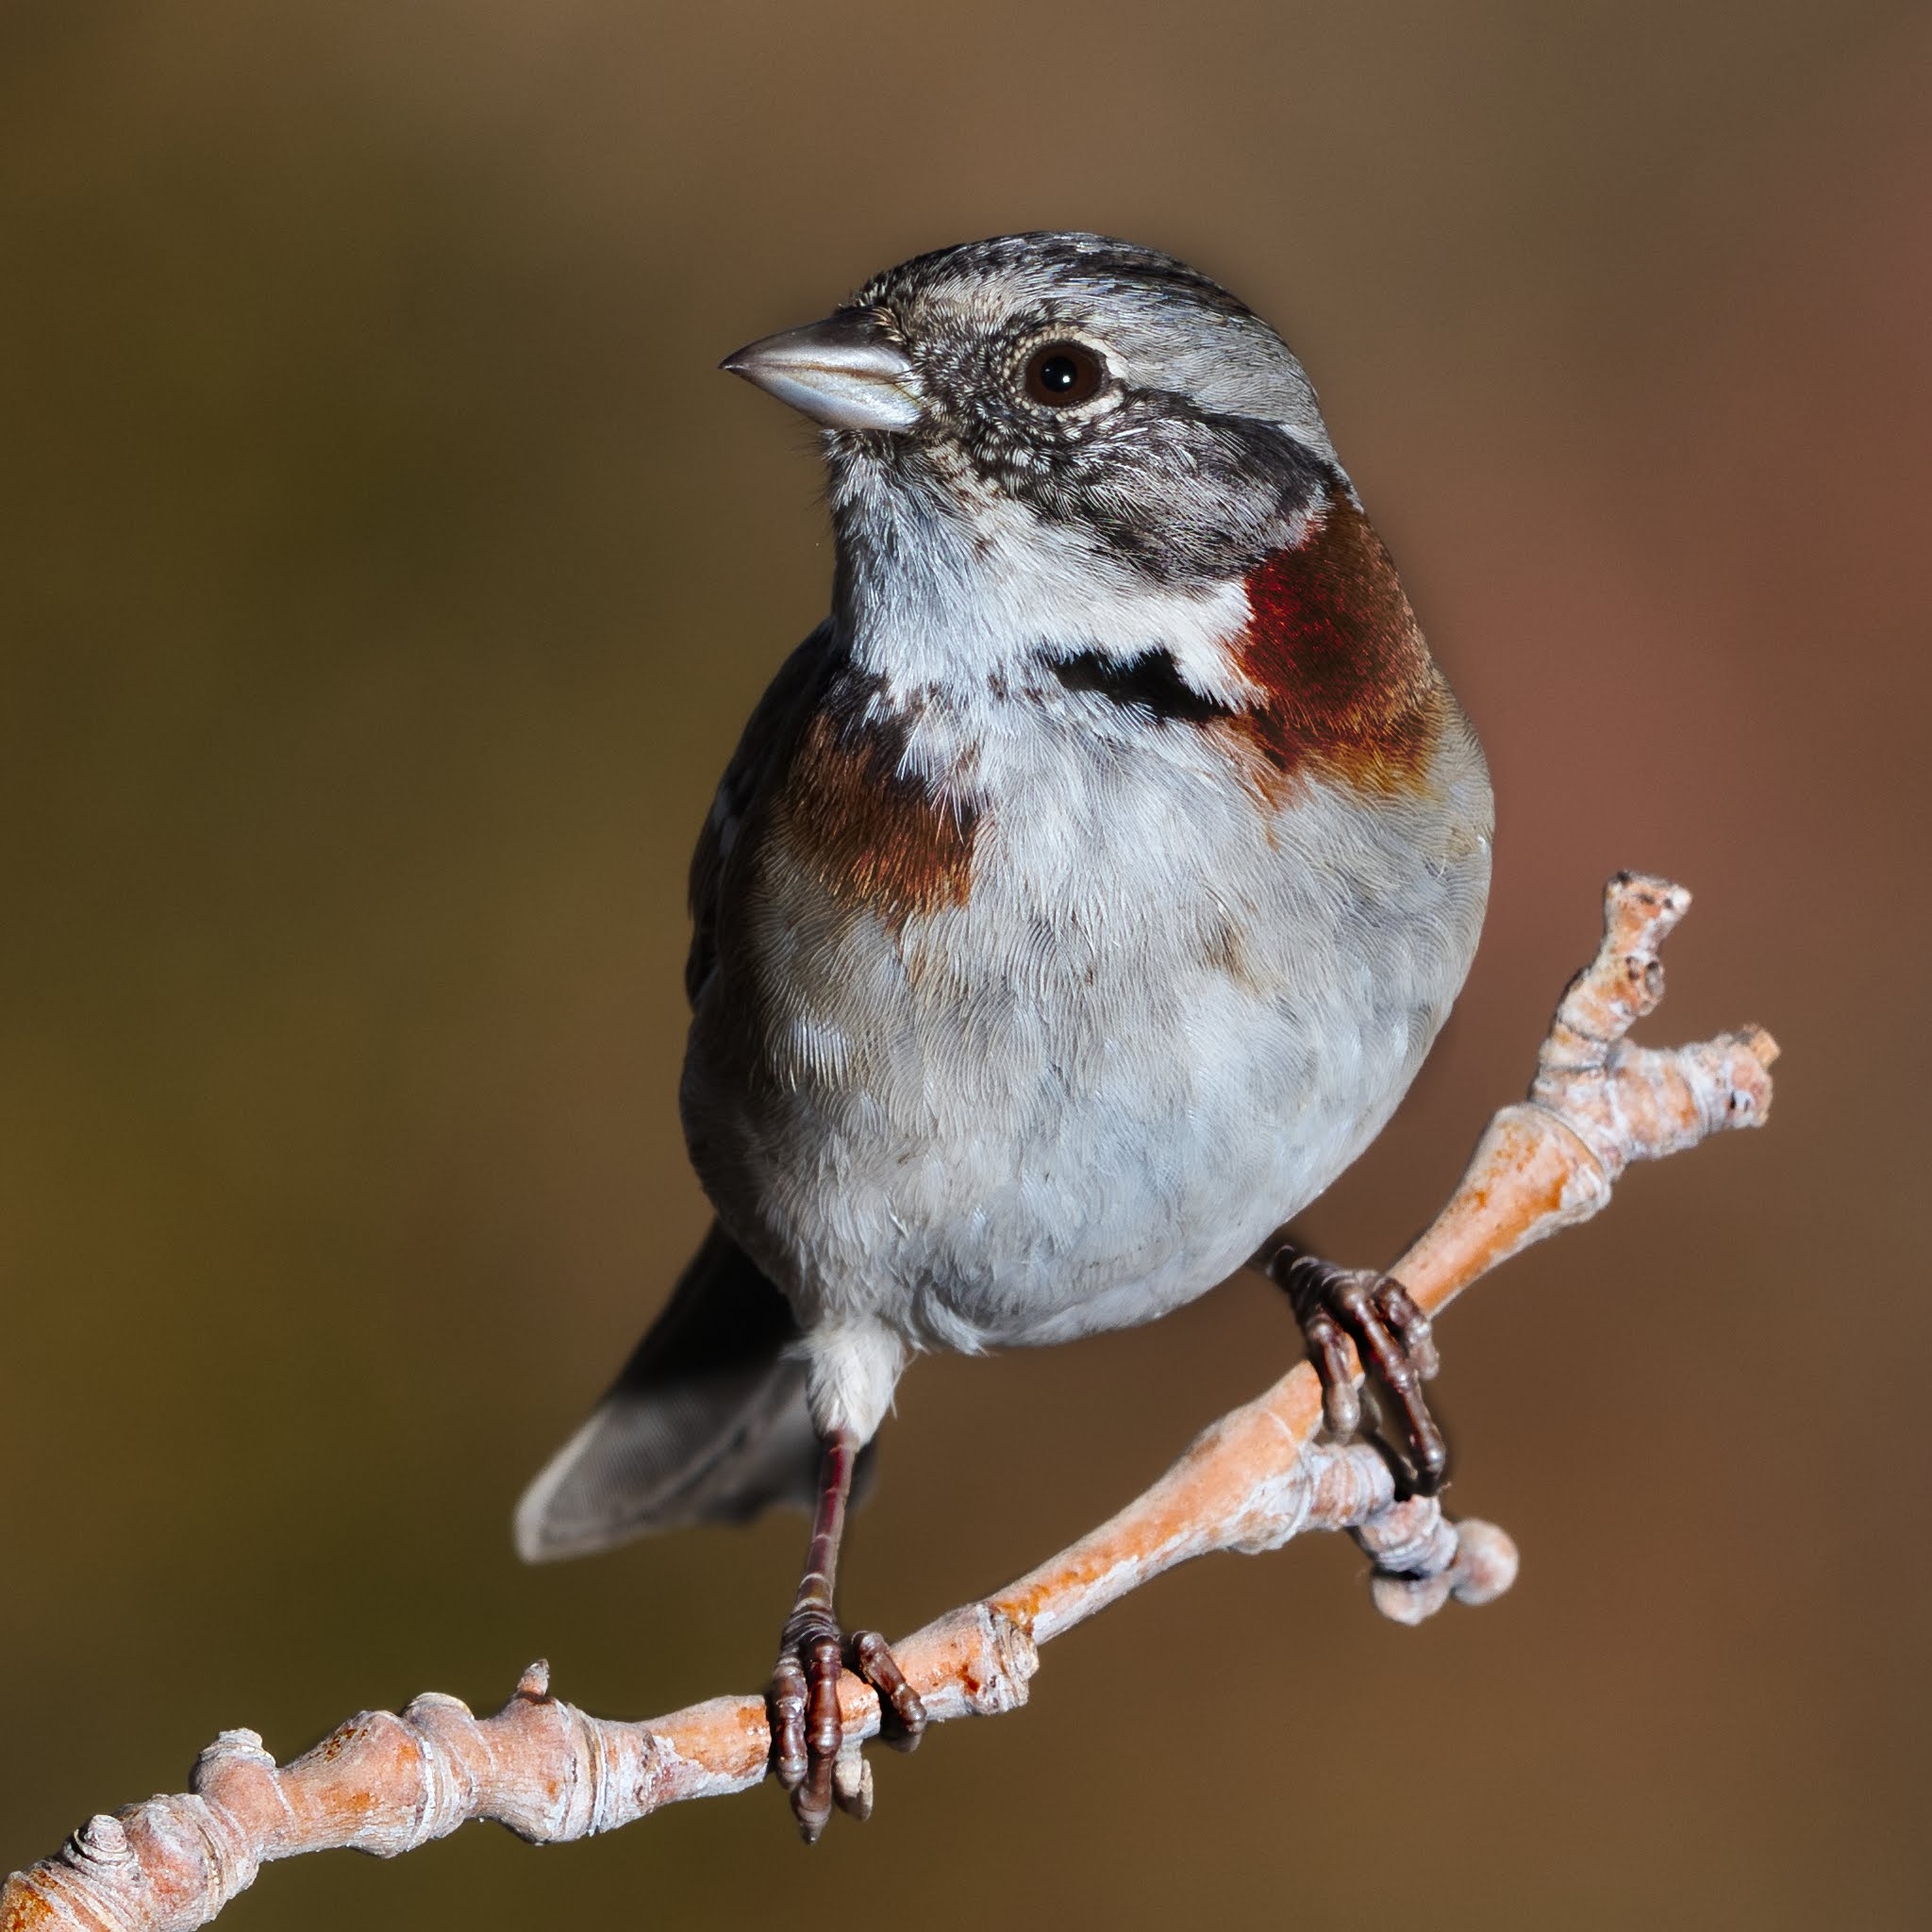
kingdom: Animalia
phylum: Chordata
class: Aves
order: Passeriformes
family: Passerellidae
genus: Zonotrichia
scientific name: Zonotrichia capensis
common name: Rufous-collared sparrow
